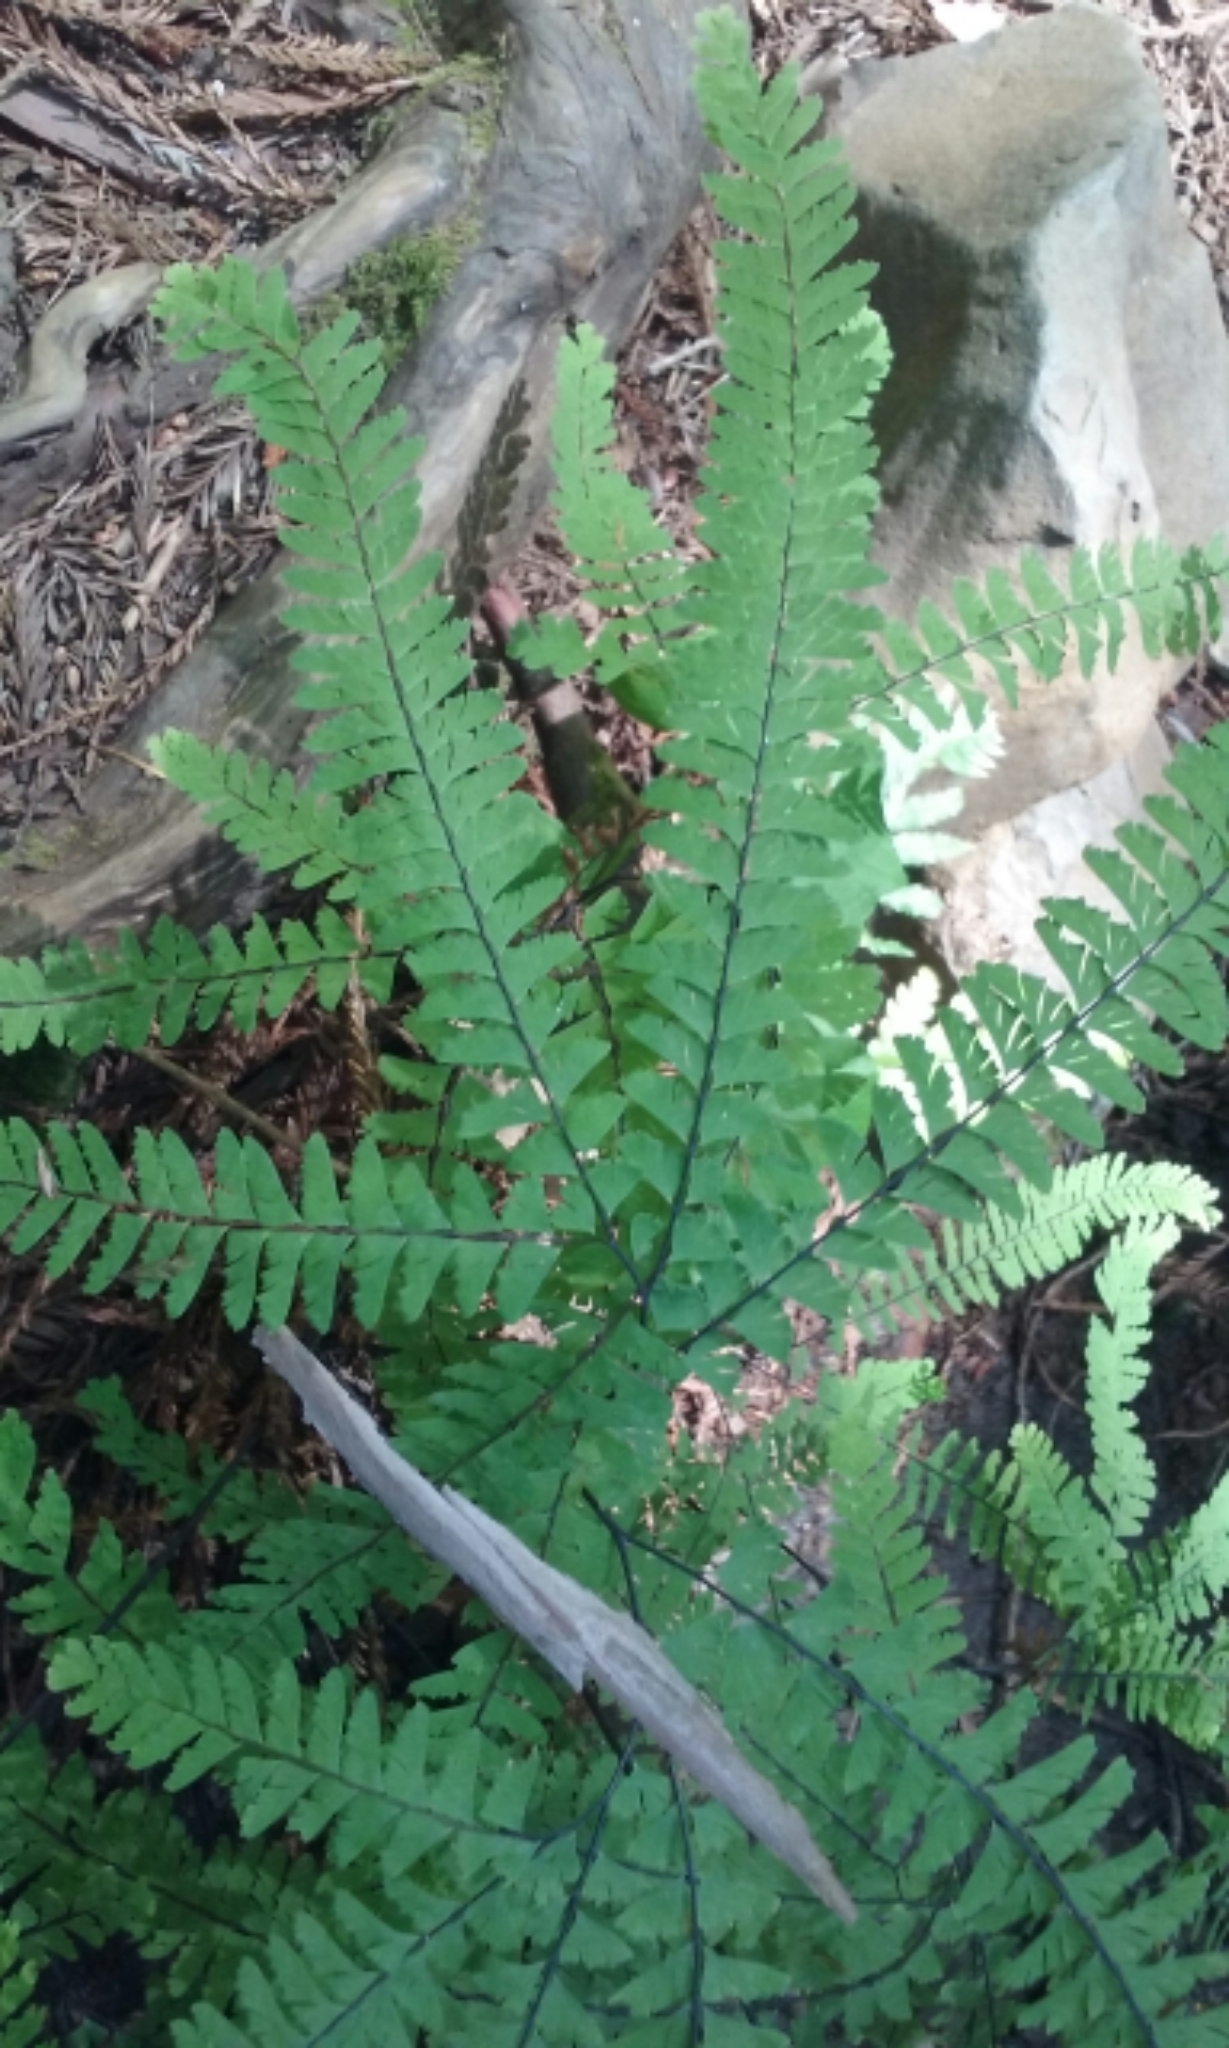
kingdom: Plantae
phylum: Tracheophyta
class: Polypodiopsida
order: Polypodiales
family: Pteridaceae
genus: Adiantum
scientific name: Adiantum aleuticum
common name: Aleutian maidenhair fern
